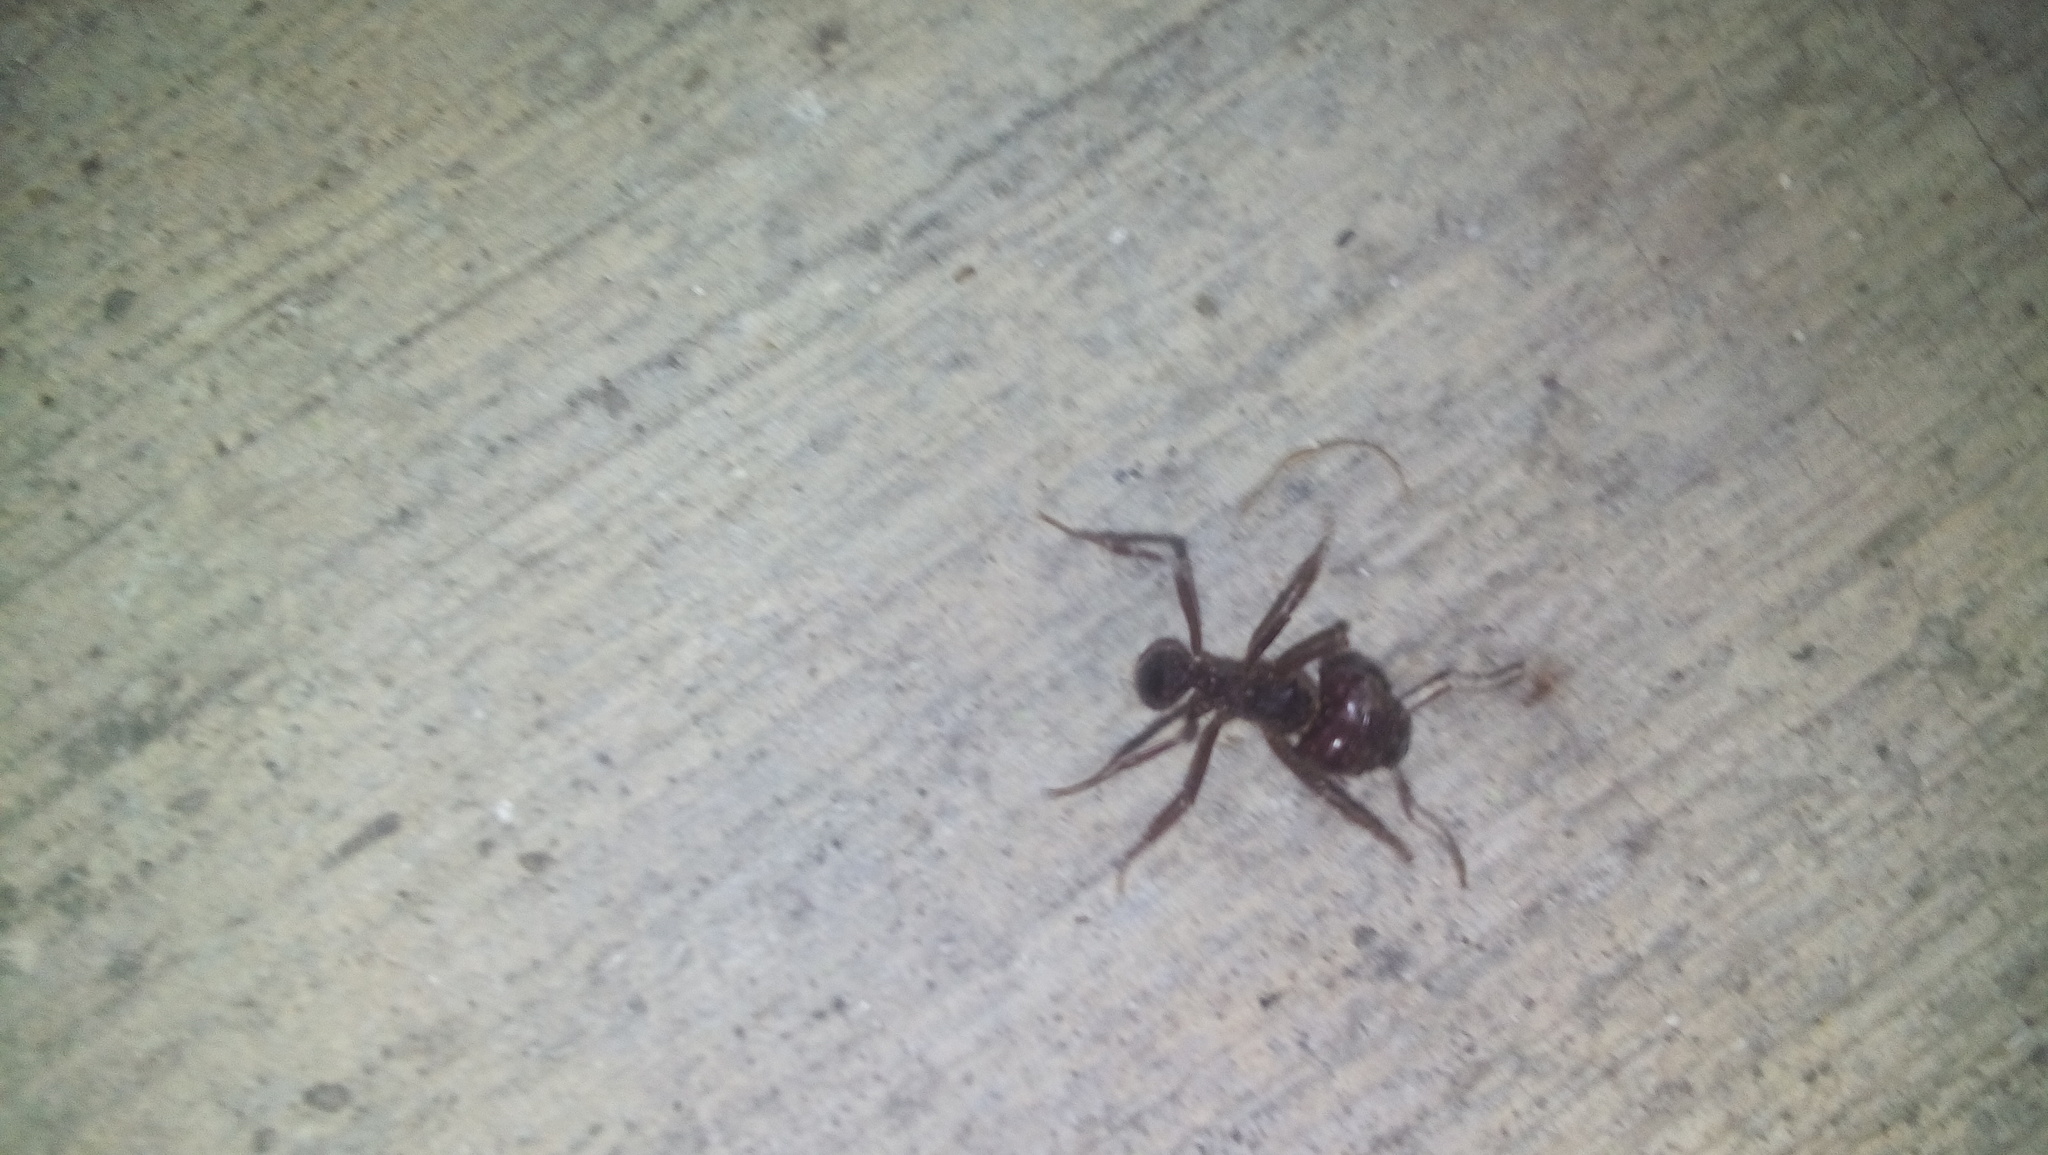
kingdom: Animalia
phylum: Arthropoda
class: Insecta
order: Hymenoptera
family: Formicidae
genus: Atta
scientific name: Atta mexicana
